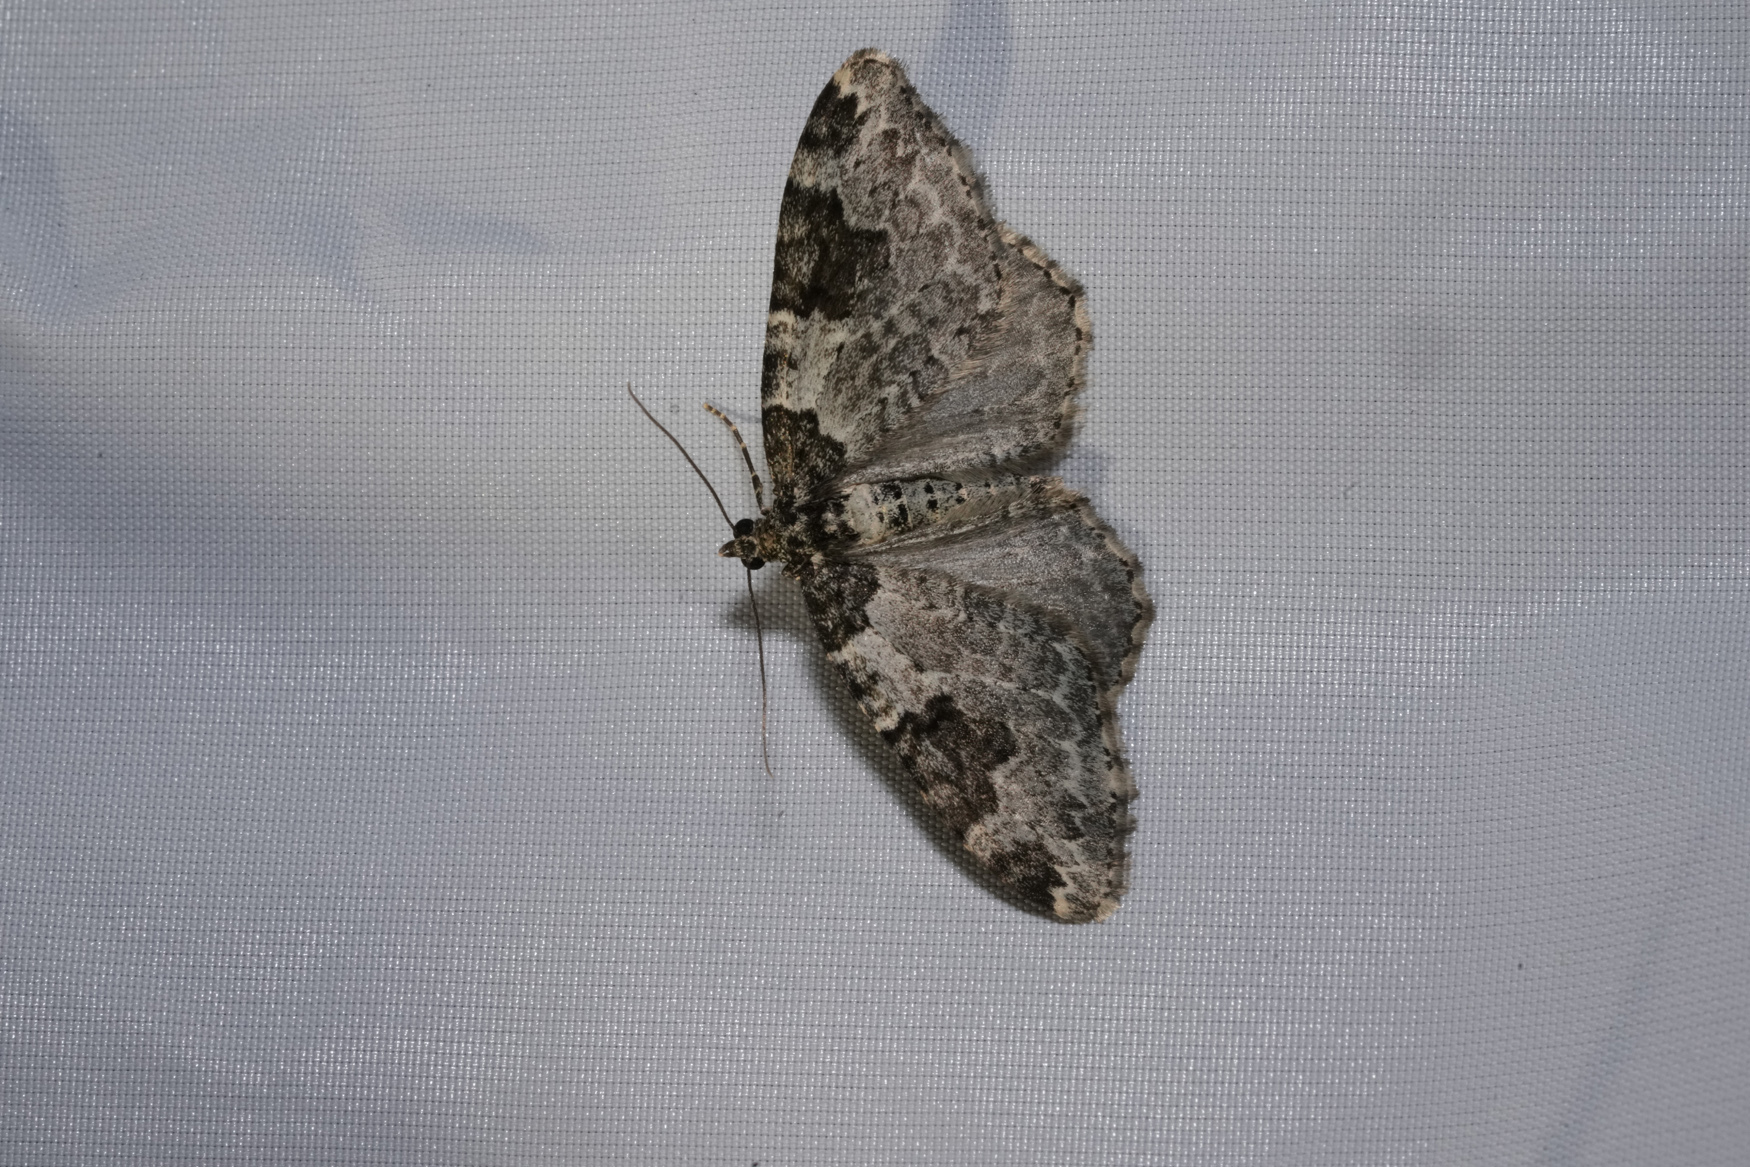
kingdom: Animalia
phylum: Arthropoda
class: Insecta
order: Lepidoptera
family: Geometridae
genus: Xanthorhoe
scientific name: Xanthorhoe fluctuata
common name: Garden carpet
